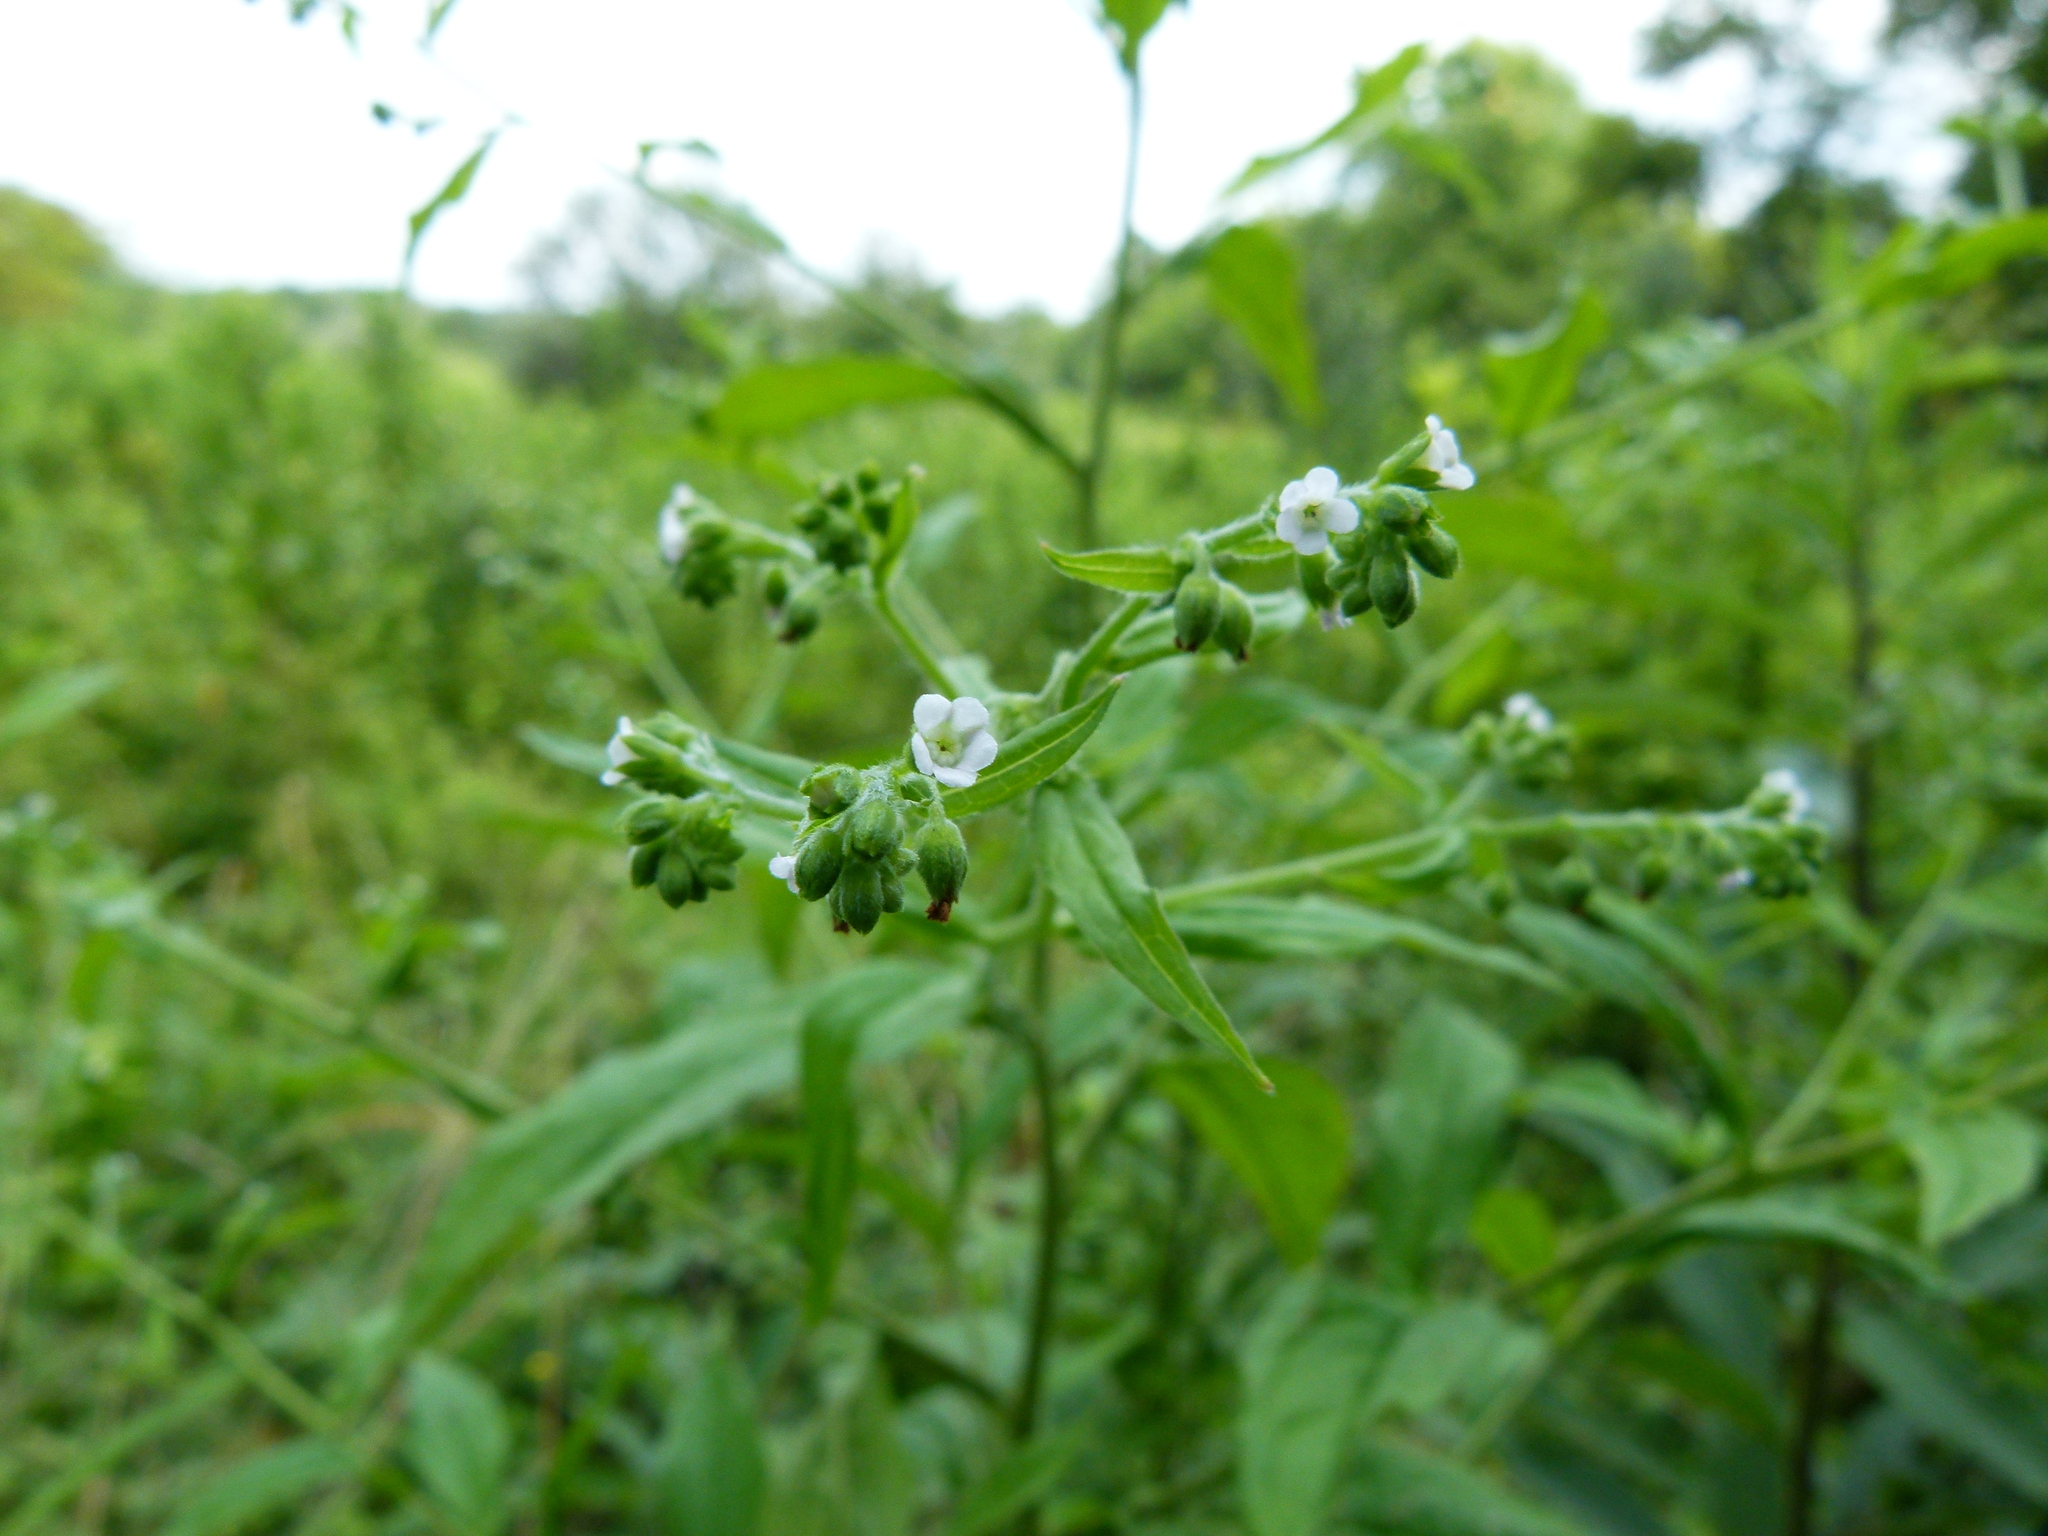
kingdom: Plantae
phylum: Tracheophyta
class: Magnoliopsida
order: Boraginales
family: Boraginaceae
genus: Lithospermum
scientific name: Lithospermum officinale
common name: Common gromwell
